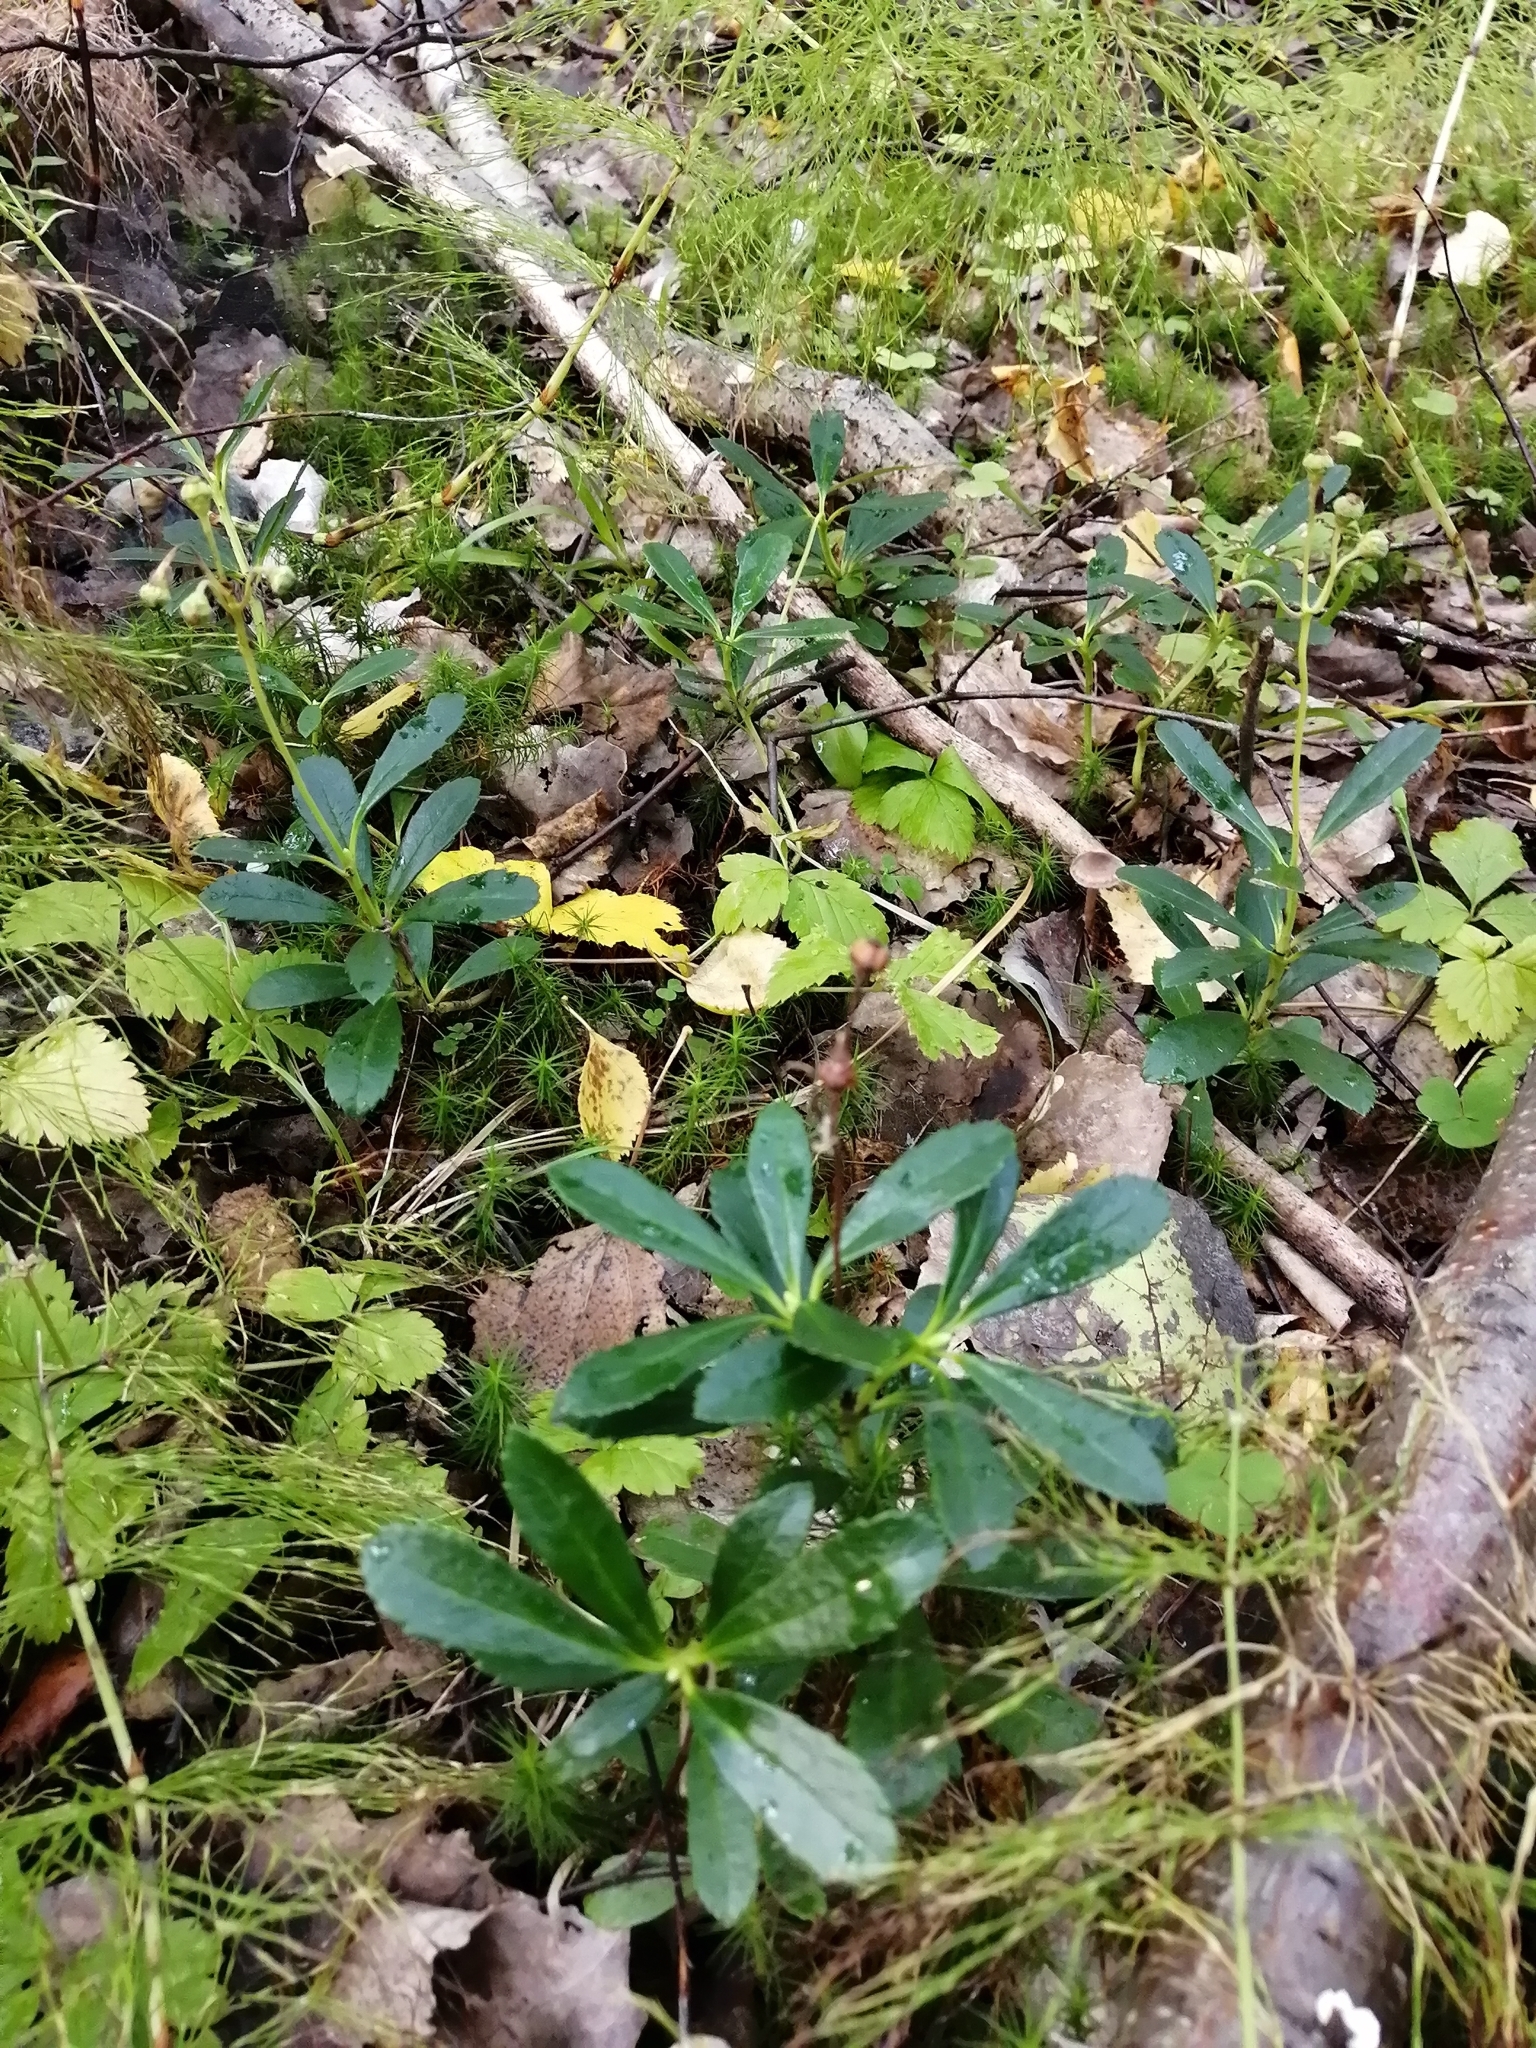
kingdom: Plantae
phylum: Tracheophyta
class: Magnoliopsida
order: Ericales
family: Ericaceae
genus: Chimaphila
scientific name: Chimaphila umbellata
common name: Pipsissewa
